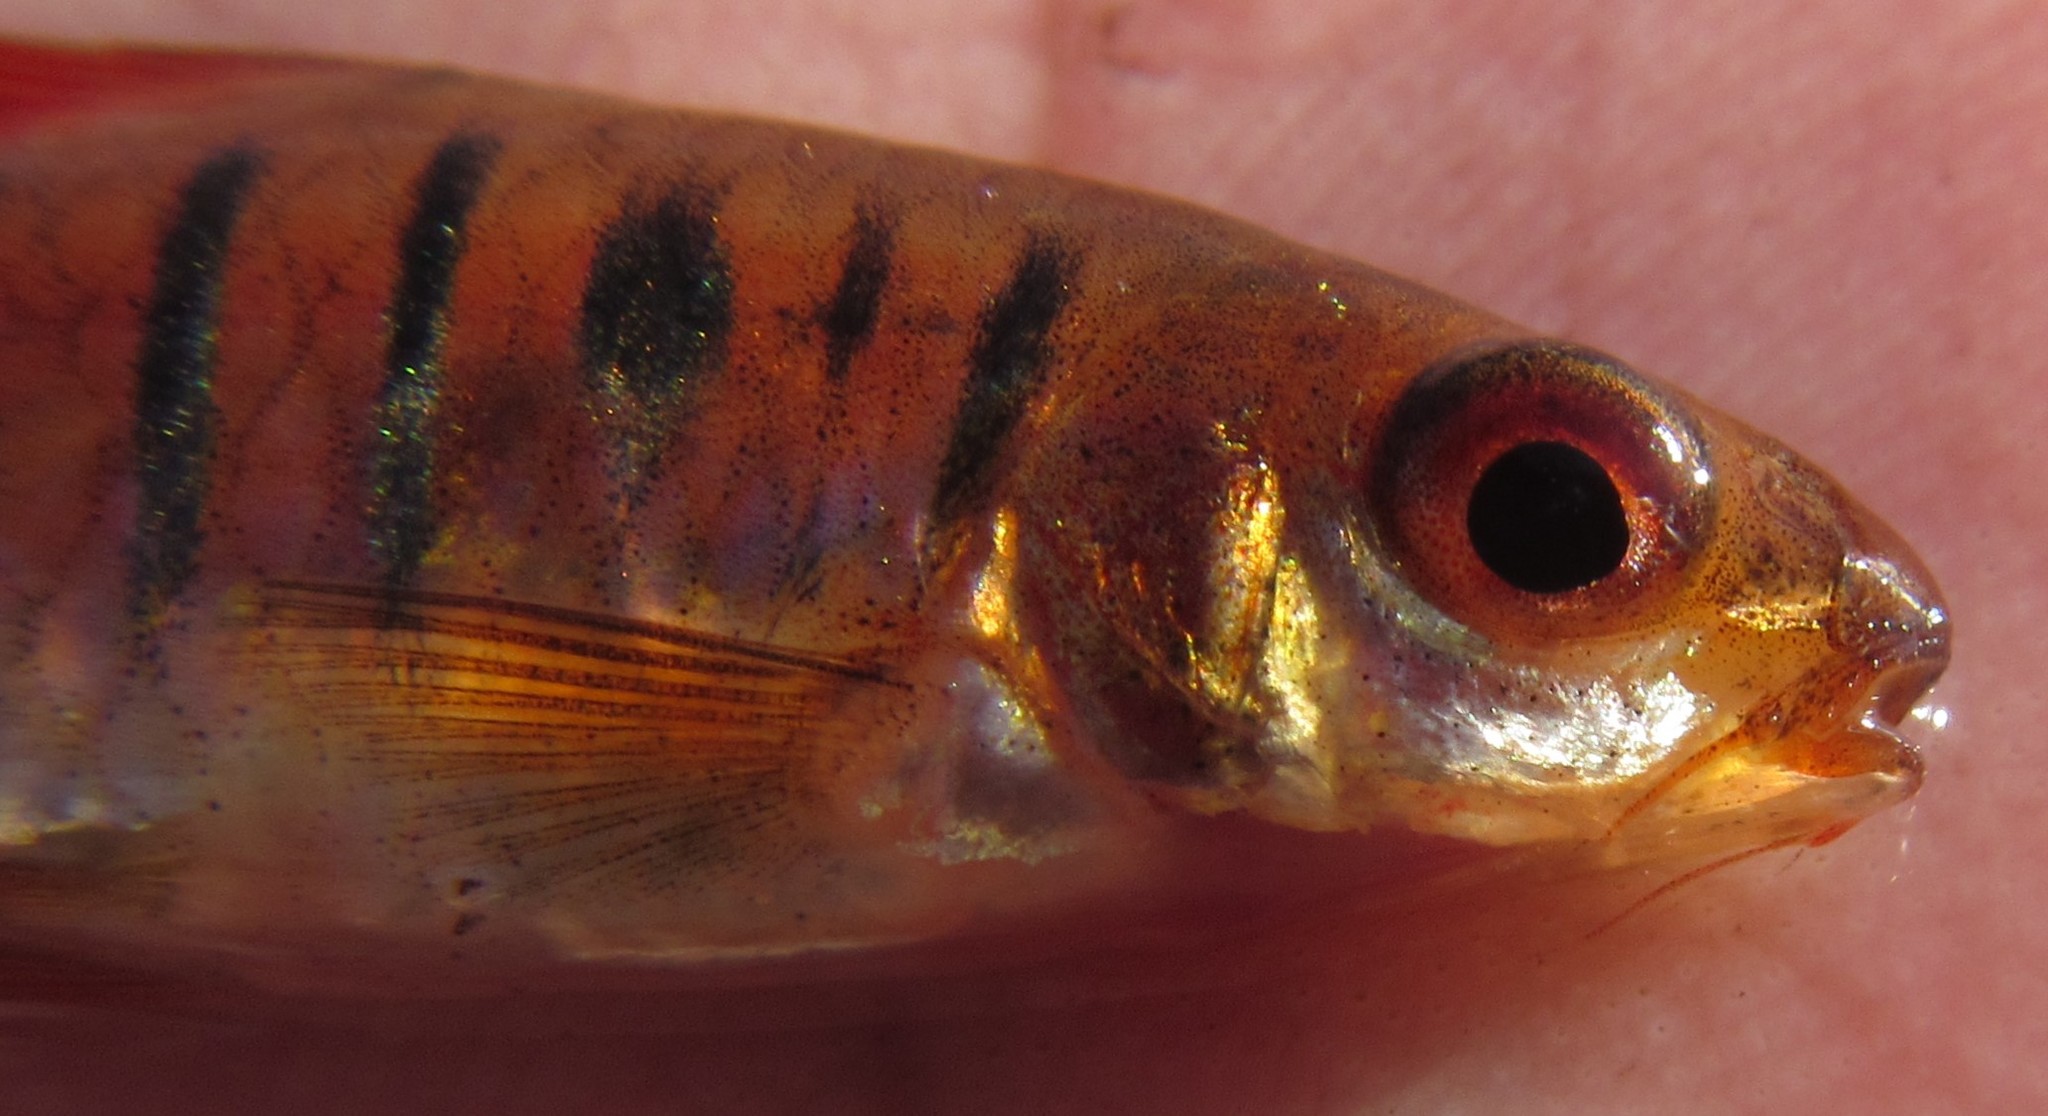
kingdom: Animalia
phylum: Chordata
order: Cypriniformes
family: Cyprinidae
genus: Enteromius
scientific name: Enteromius fasciolatus
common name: Red barb
